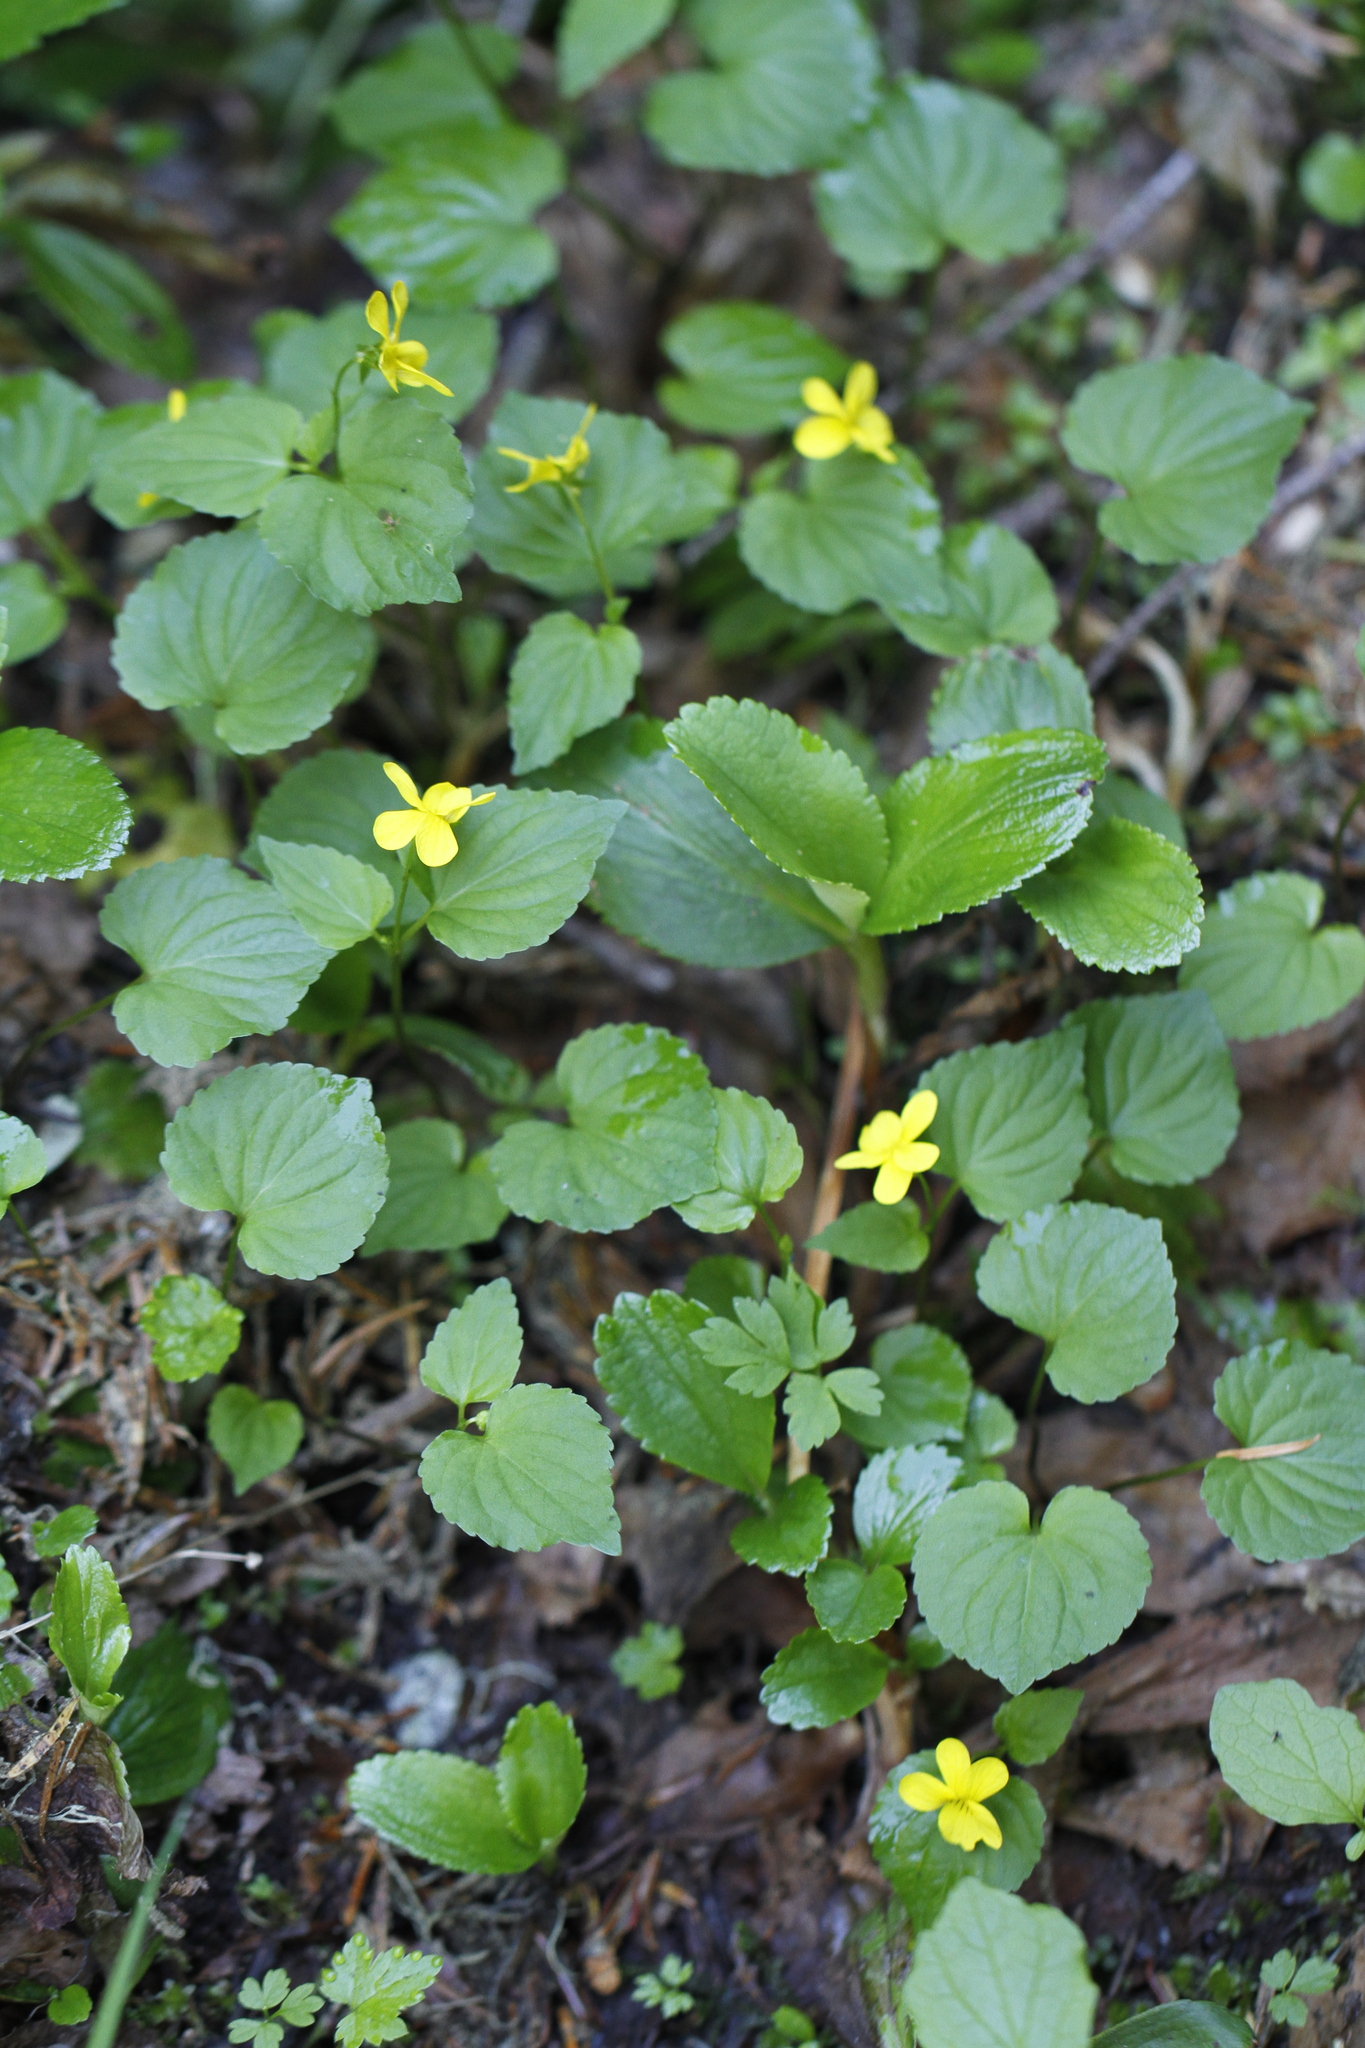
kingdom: Plantae
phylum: Tracheophyta
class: Magnoliopsida
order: Malpighiales
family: Violaceae
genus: Viola
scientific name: Viola glabella
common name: Stream violet
